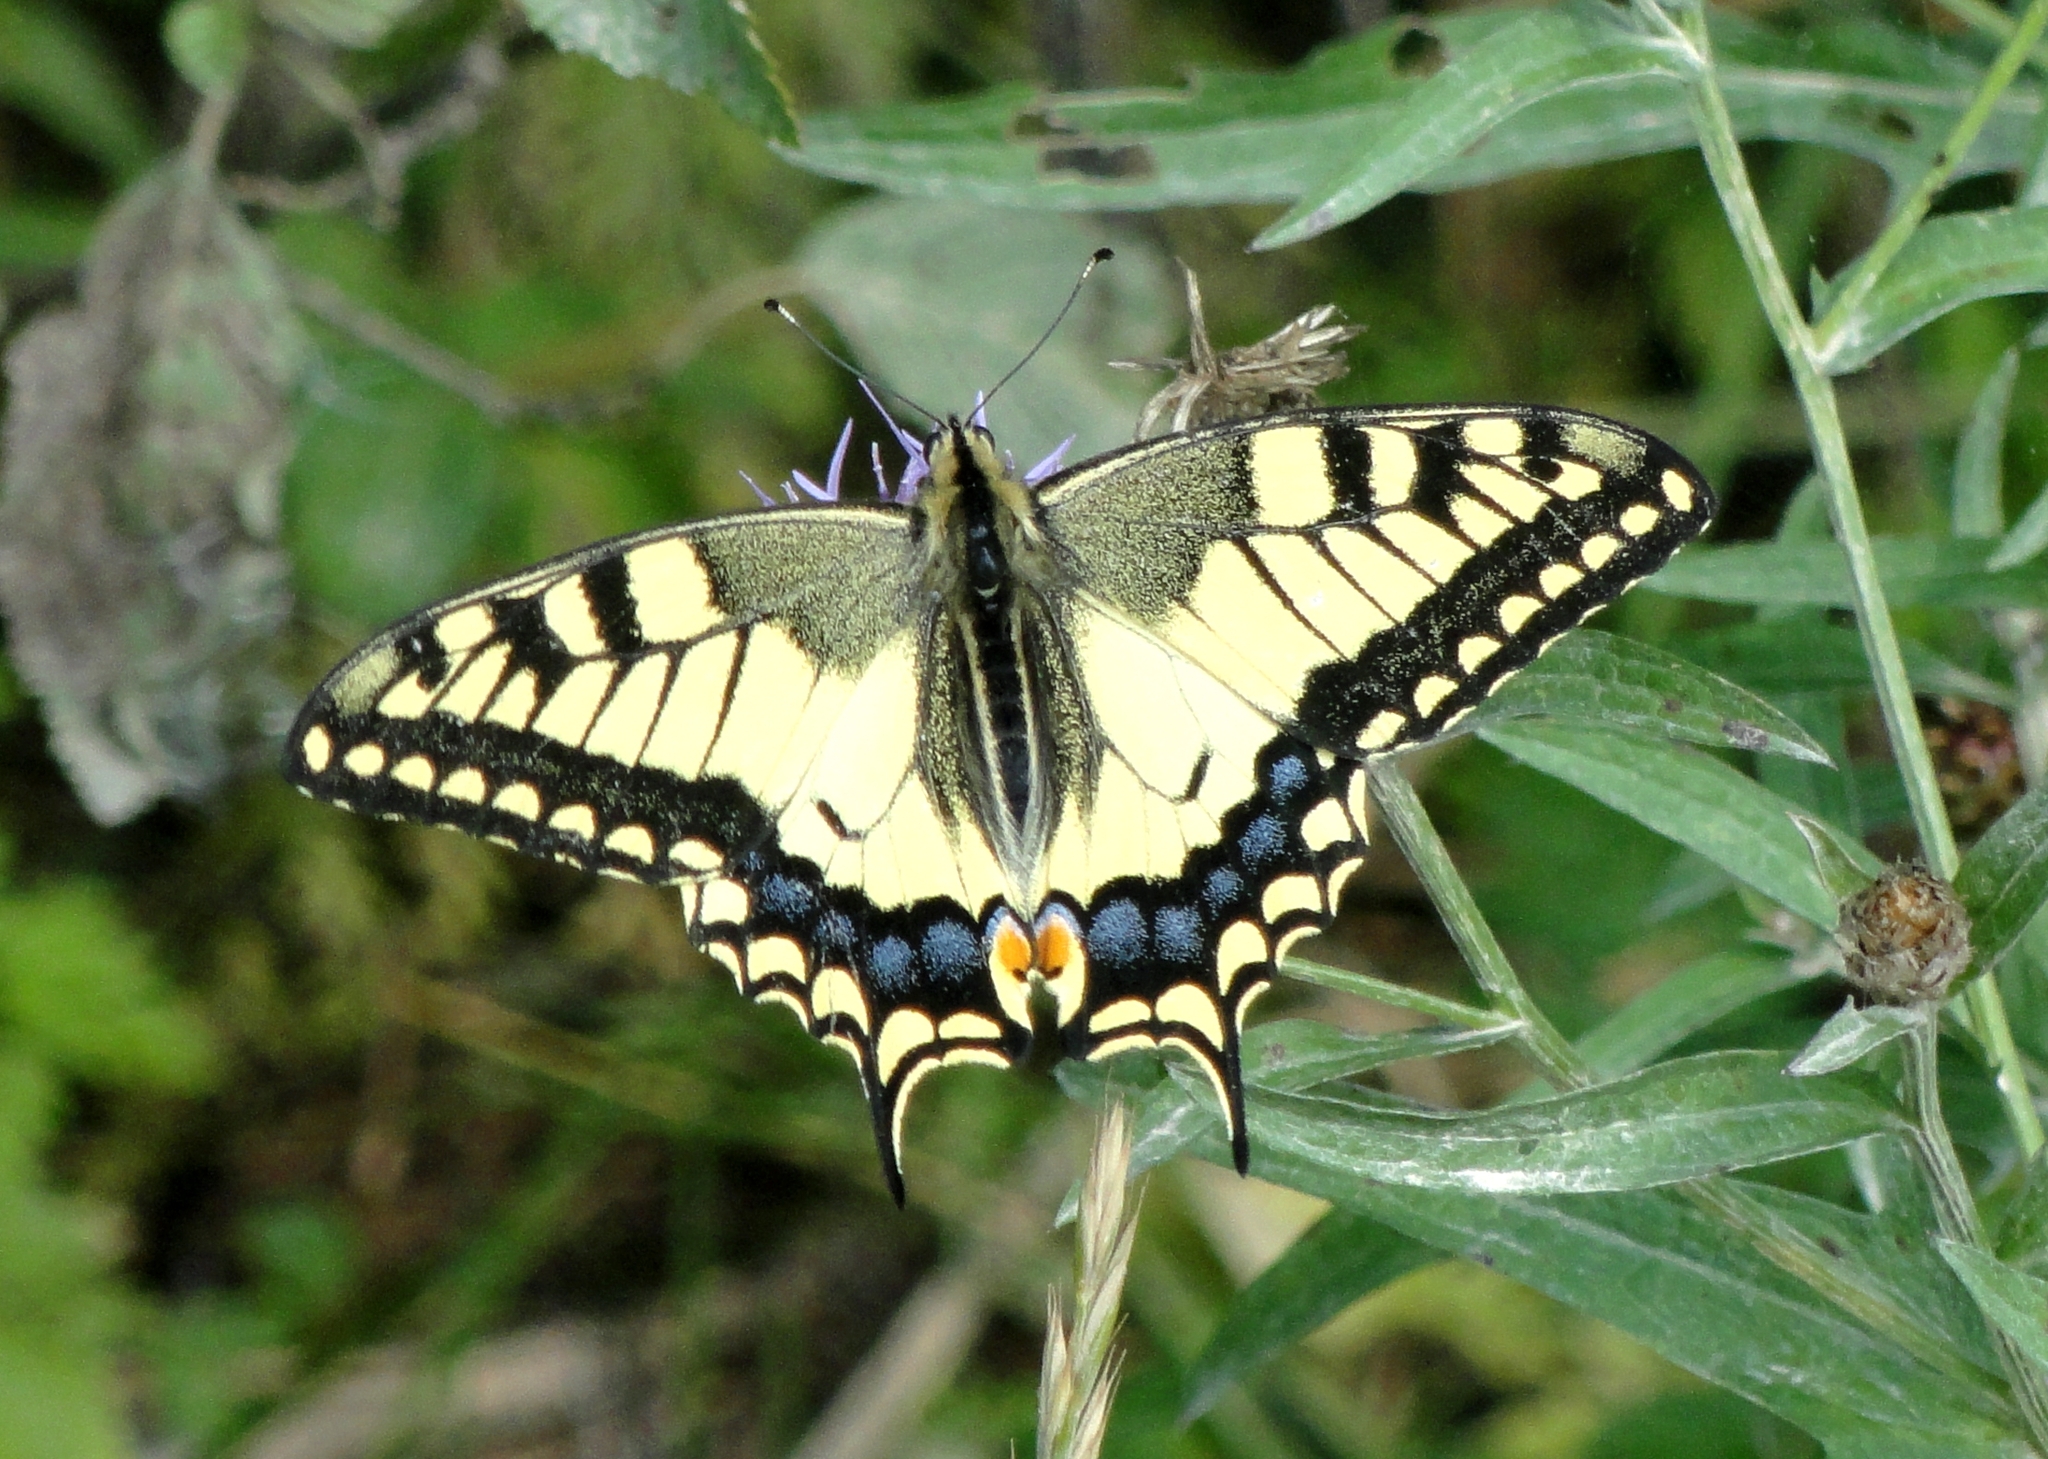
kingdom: Animalia
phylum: Arthropoda
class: Insecta
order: Lepidoptera
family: Papilionidae
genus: Papilio
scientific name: Papilio machaon
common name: Swallowtail
